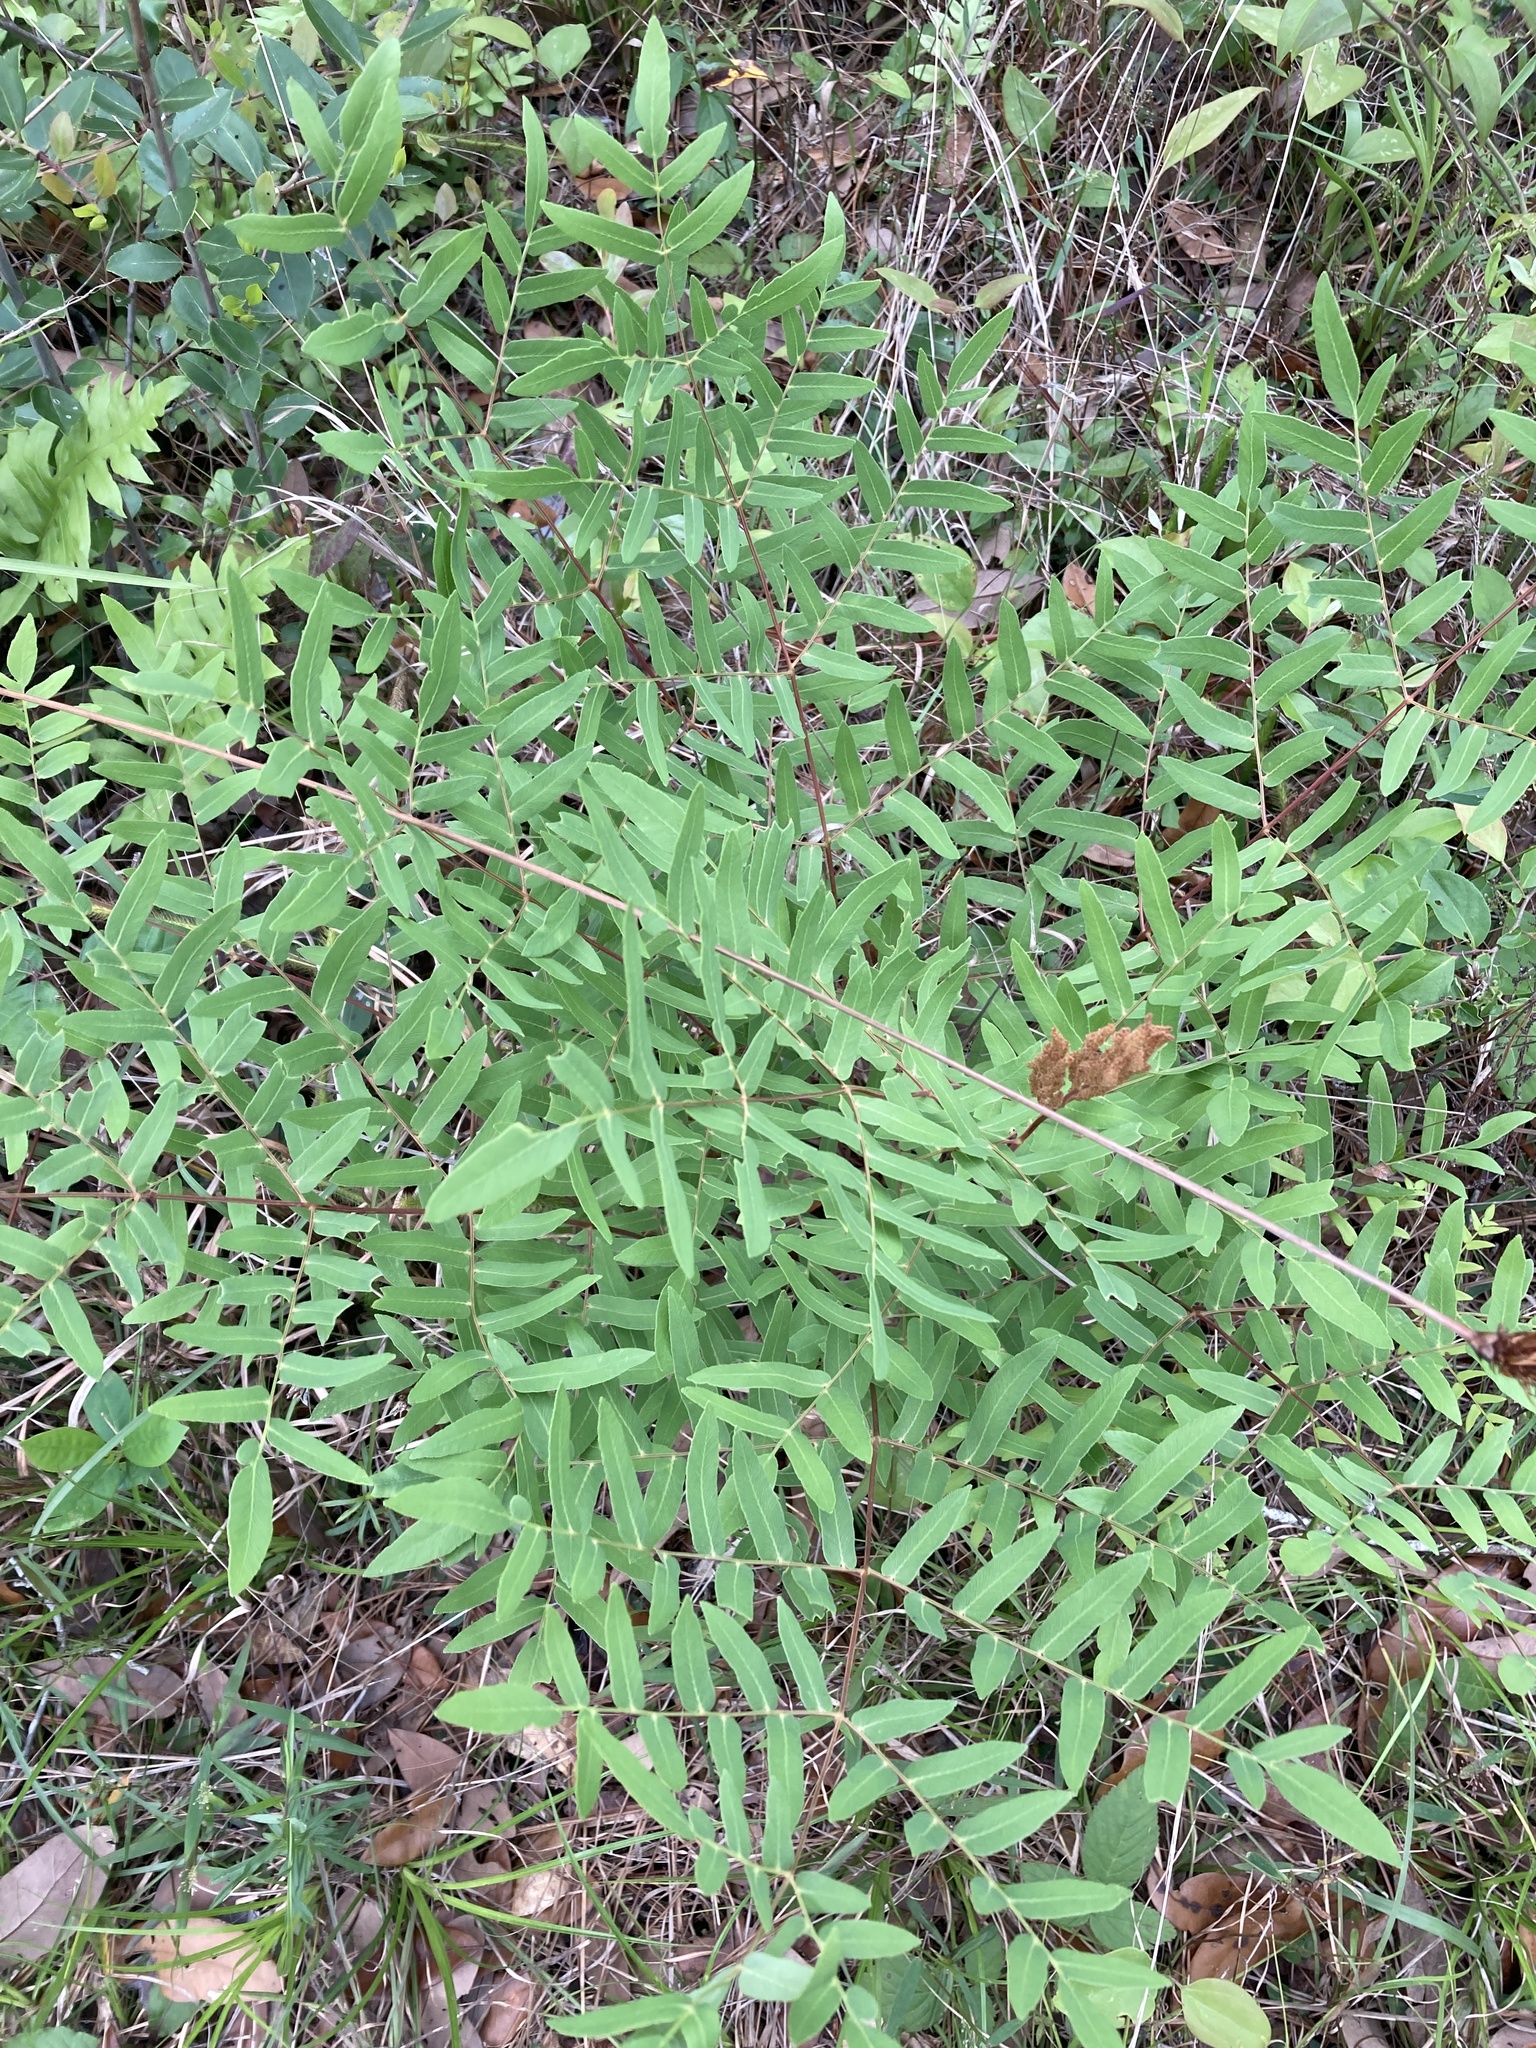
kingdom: Plantae
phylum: Tracheophyta
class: Polypodiopsida
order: Osmundales
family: Osmundaceae
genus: Osmunda
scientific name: Osmunda spectabilis
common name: American royal fern
